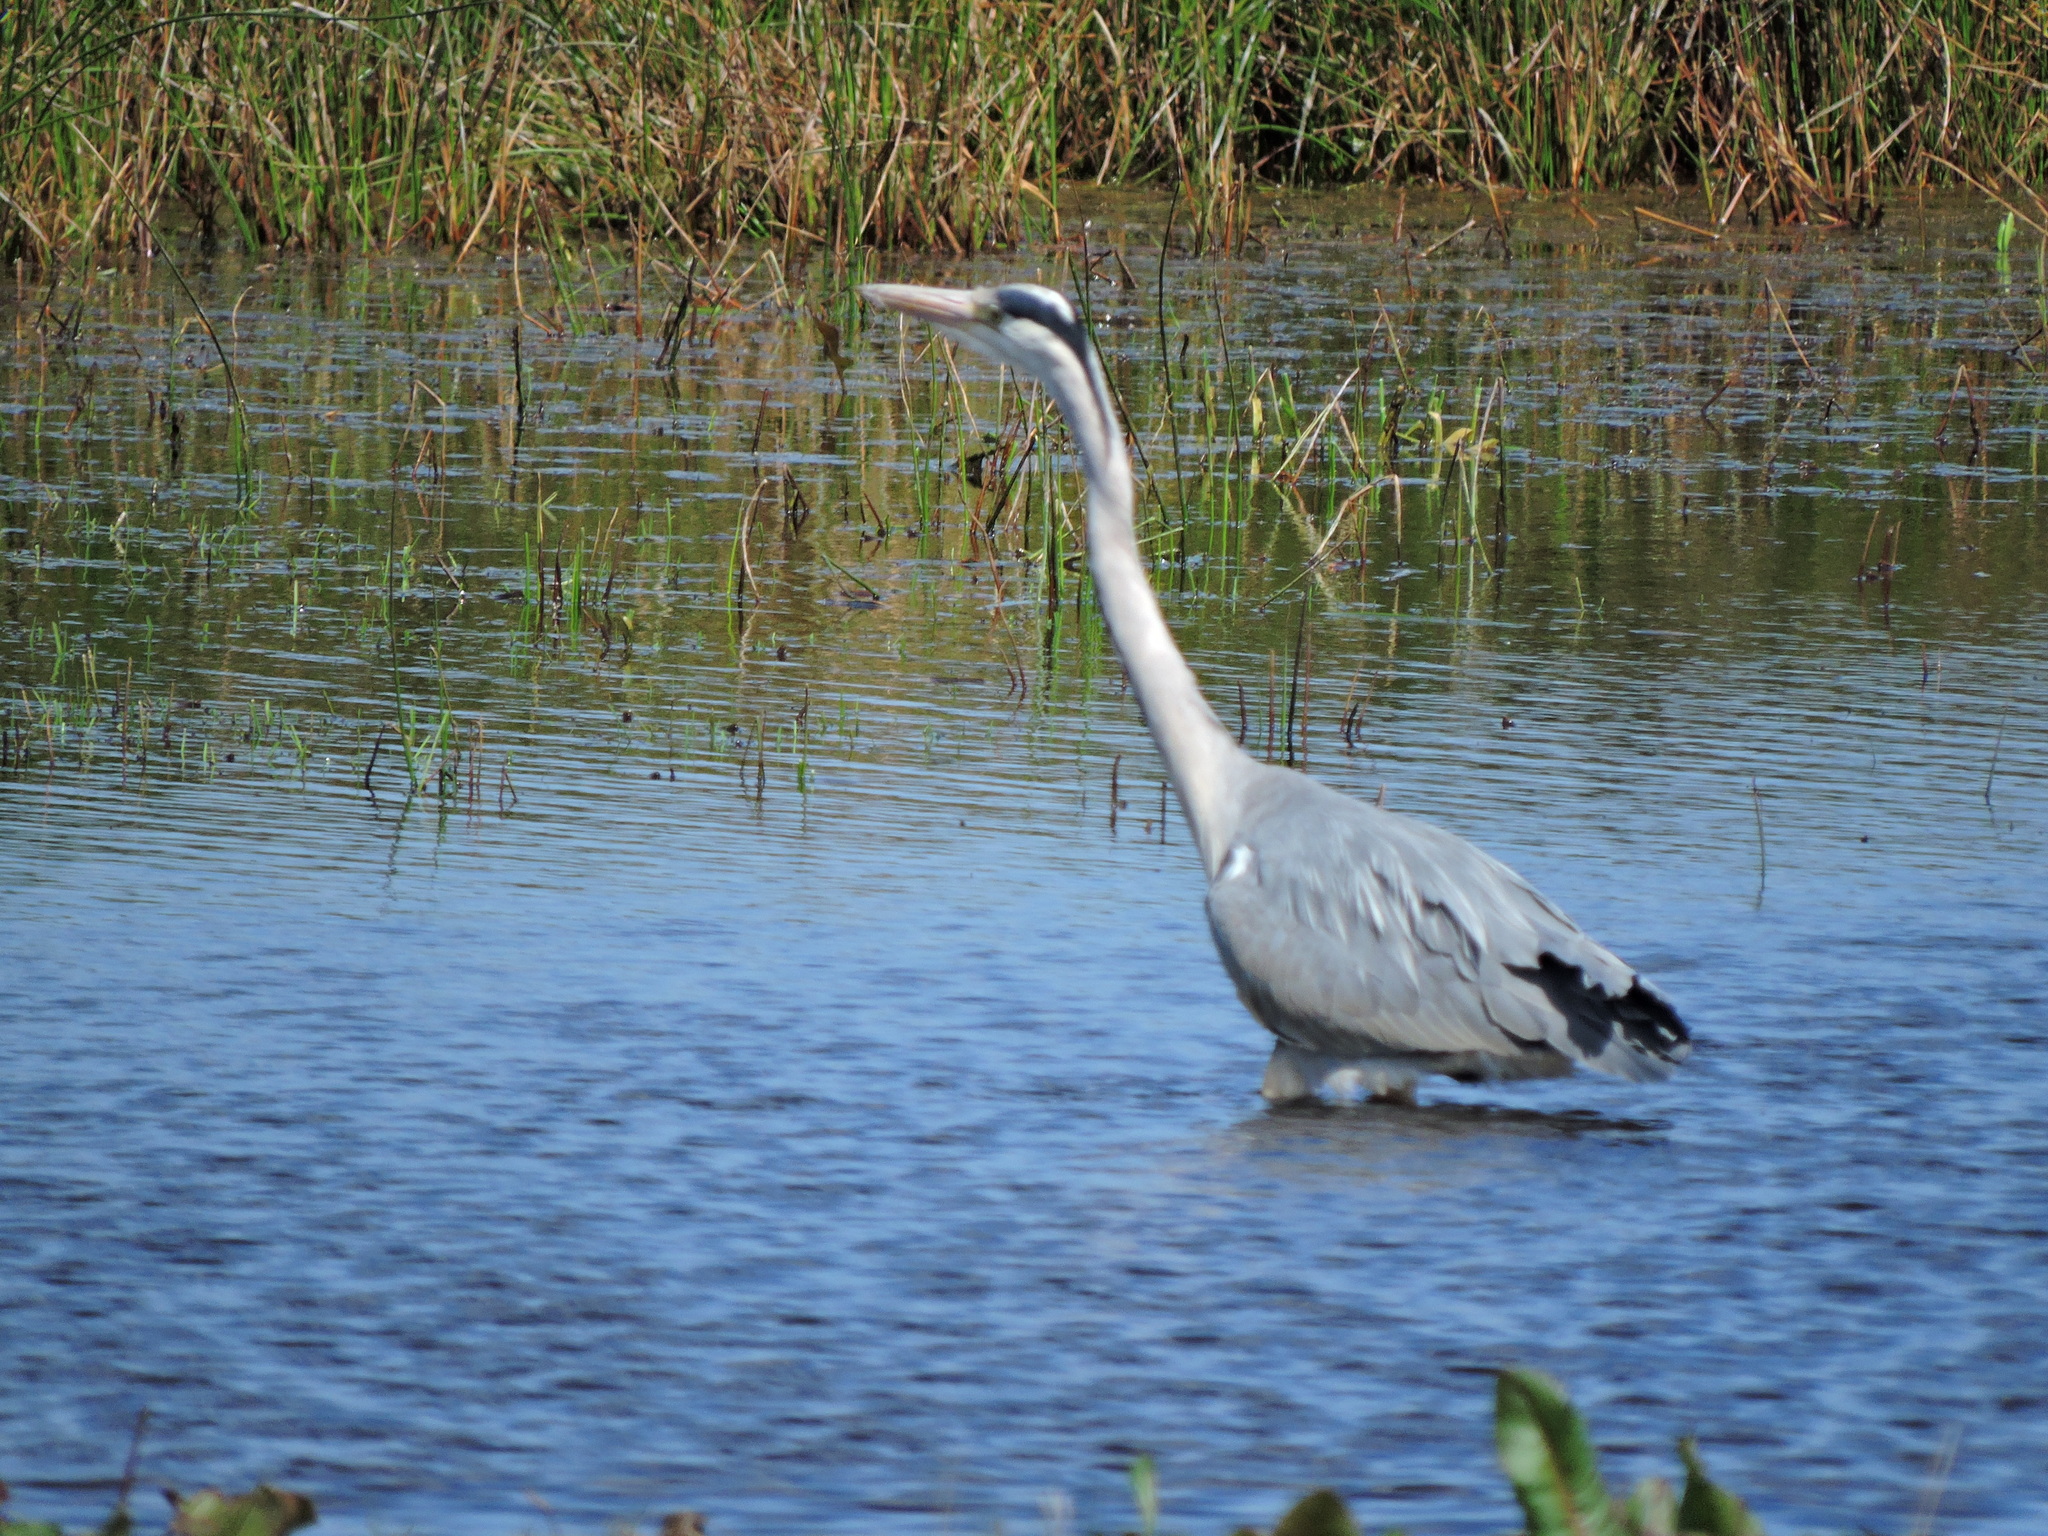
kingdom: Animalia
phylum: Chordata
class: Aves
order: Pelecaniformes
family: Ardeidae
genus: Ardea
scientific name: Ardea cinerea
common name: Grey heron
